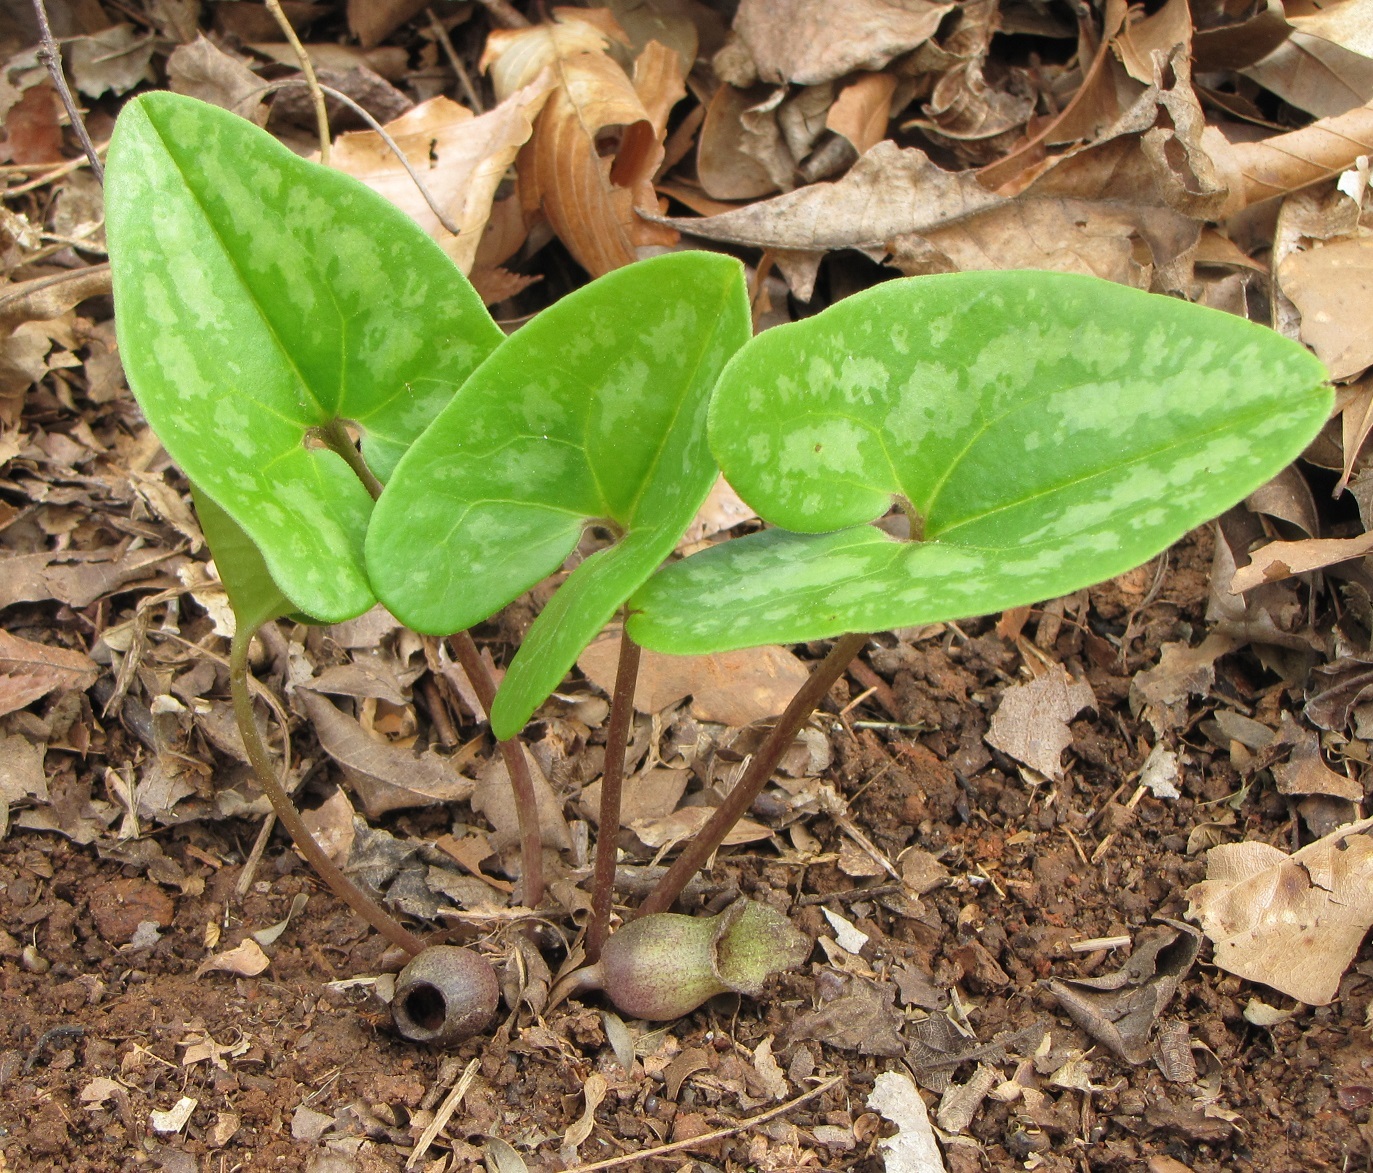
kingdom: Plantae
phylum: Tracheophyta
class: Magnoliopsida
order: Piperales
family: Aristolochiaceae
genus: Hexastylis
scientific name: Hexastylis arifolia
